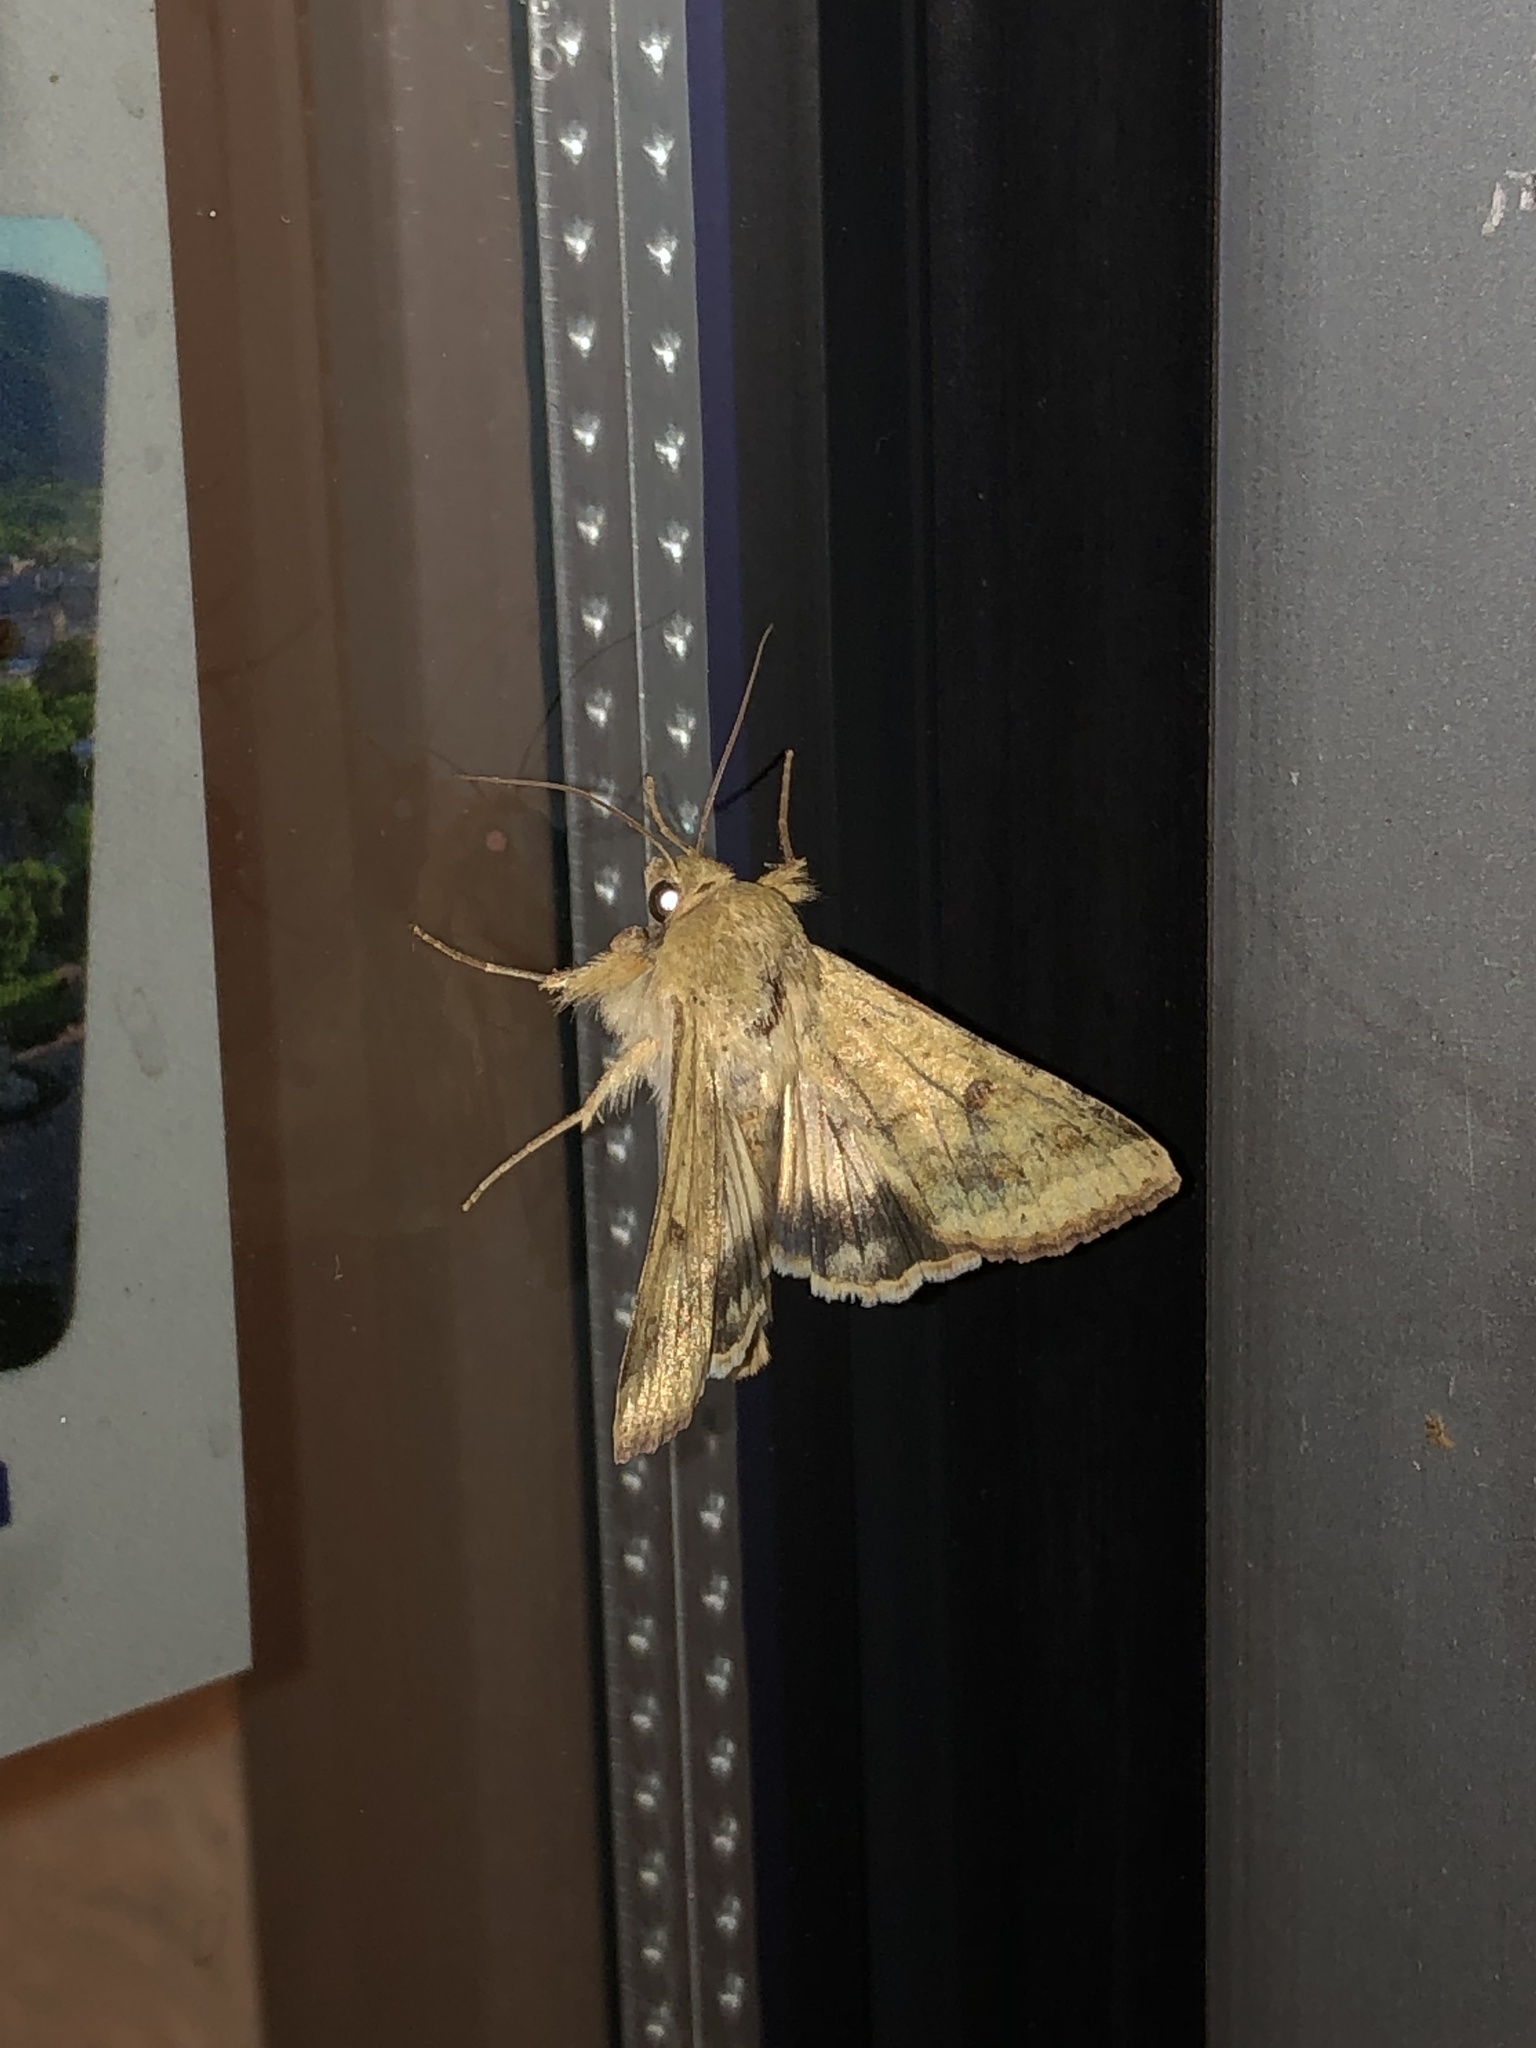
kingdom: Animalia
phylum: Arthropoda
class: Insecta
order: Lepidoptera
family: Noctuidae
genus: Helicoverpa
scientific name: Helicoverpa zea
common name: Bollworm
